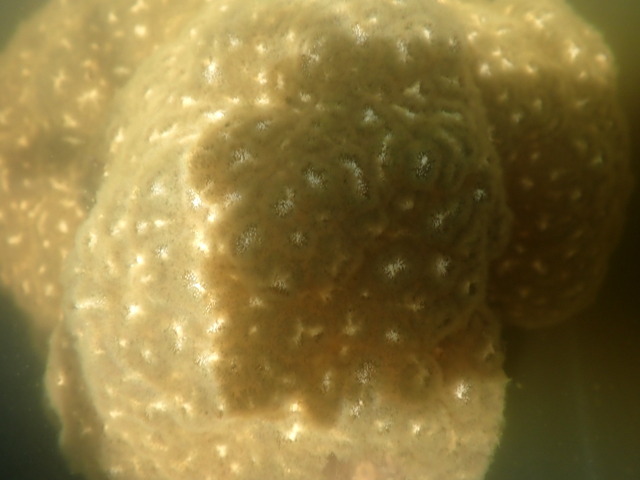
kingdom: Animalia
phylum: Bryozoa
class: Phylactolaemata
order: Plumatellida
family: Pectinatellidae
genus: Pectinatella
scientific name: Pectinatella magnifica
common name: Magnificent bryozoan
